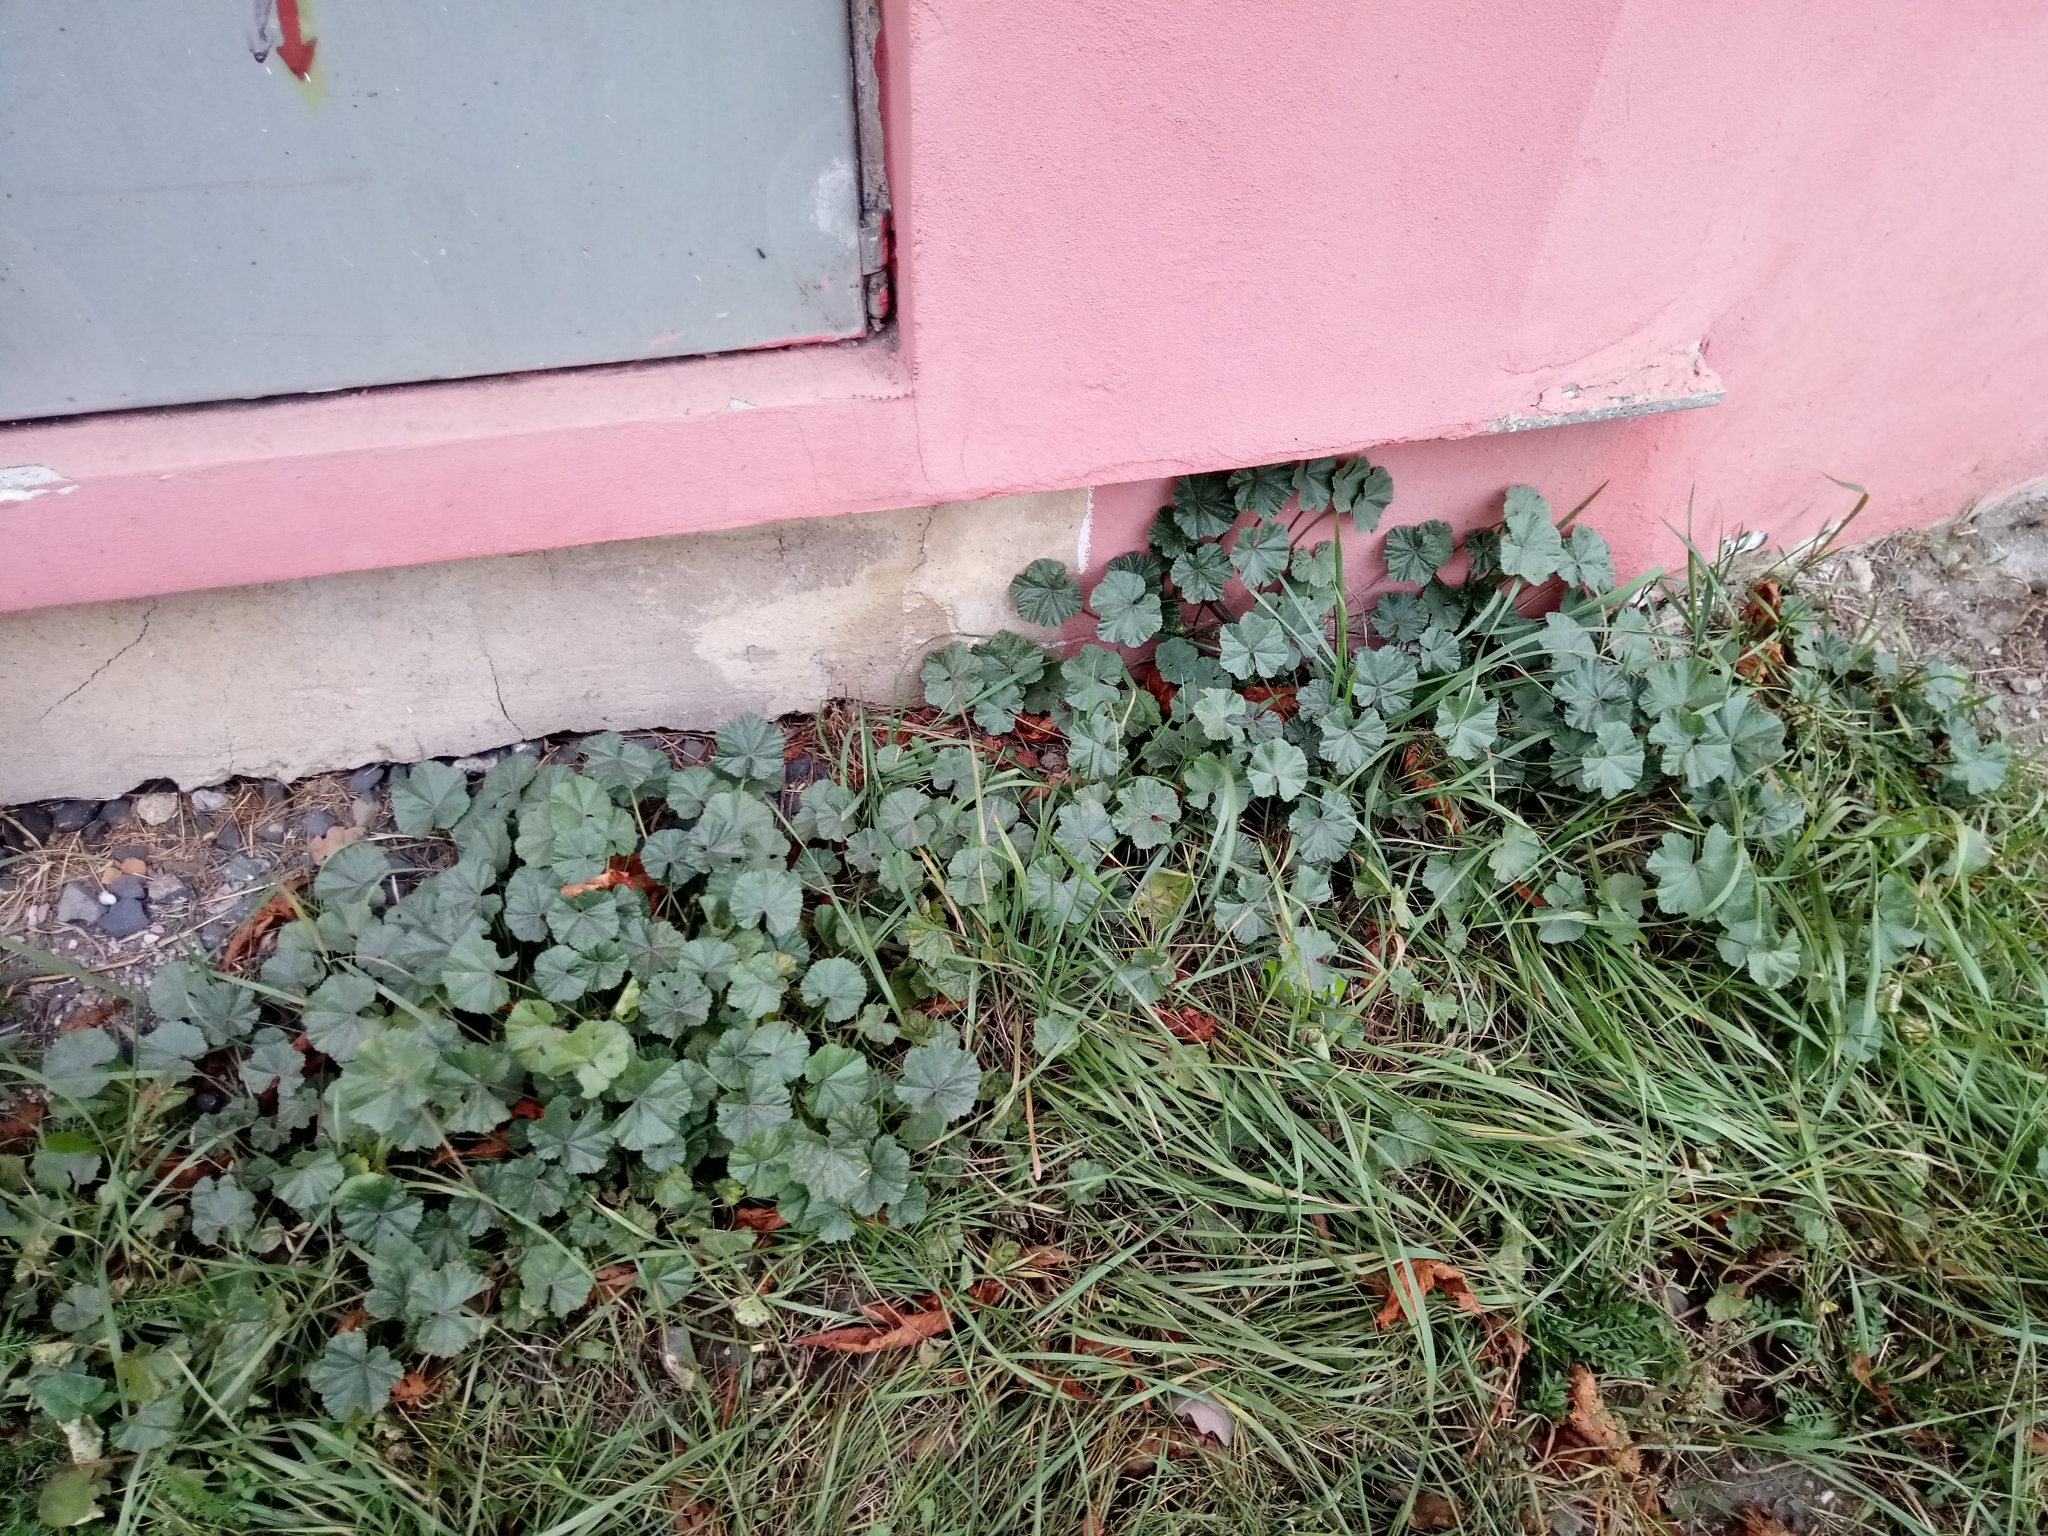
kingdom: Plantae
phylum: Tracheophyta
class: Magnoliopsida
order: Malvales
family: Malvaceae
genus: Malva
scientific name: Malva neglecta
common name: Common mallow
